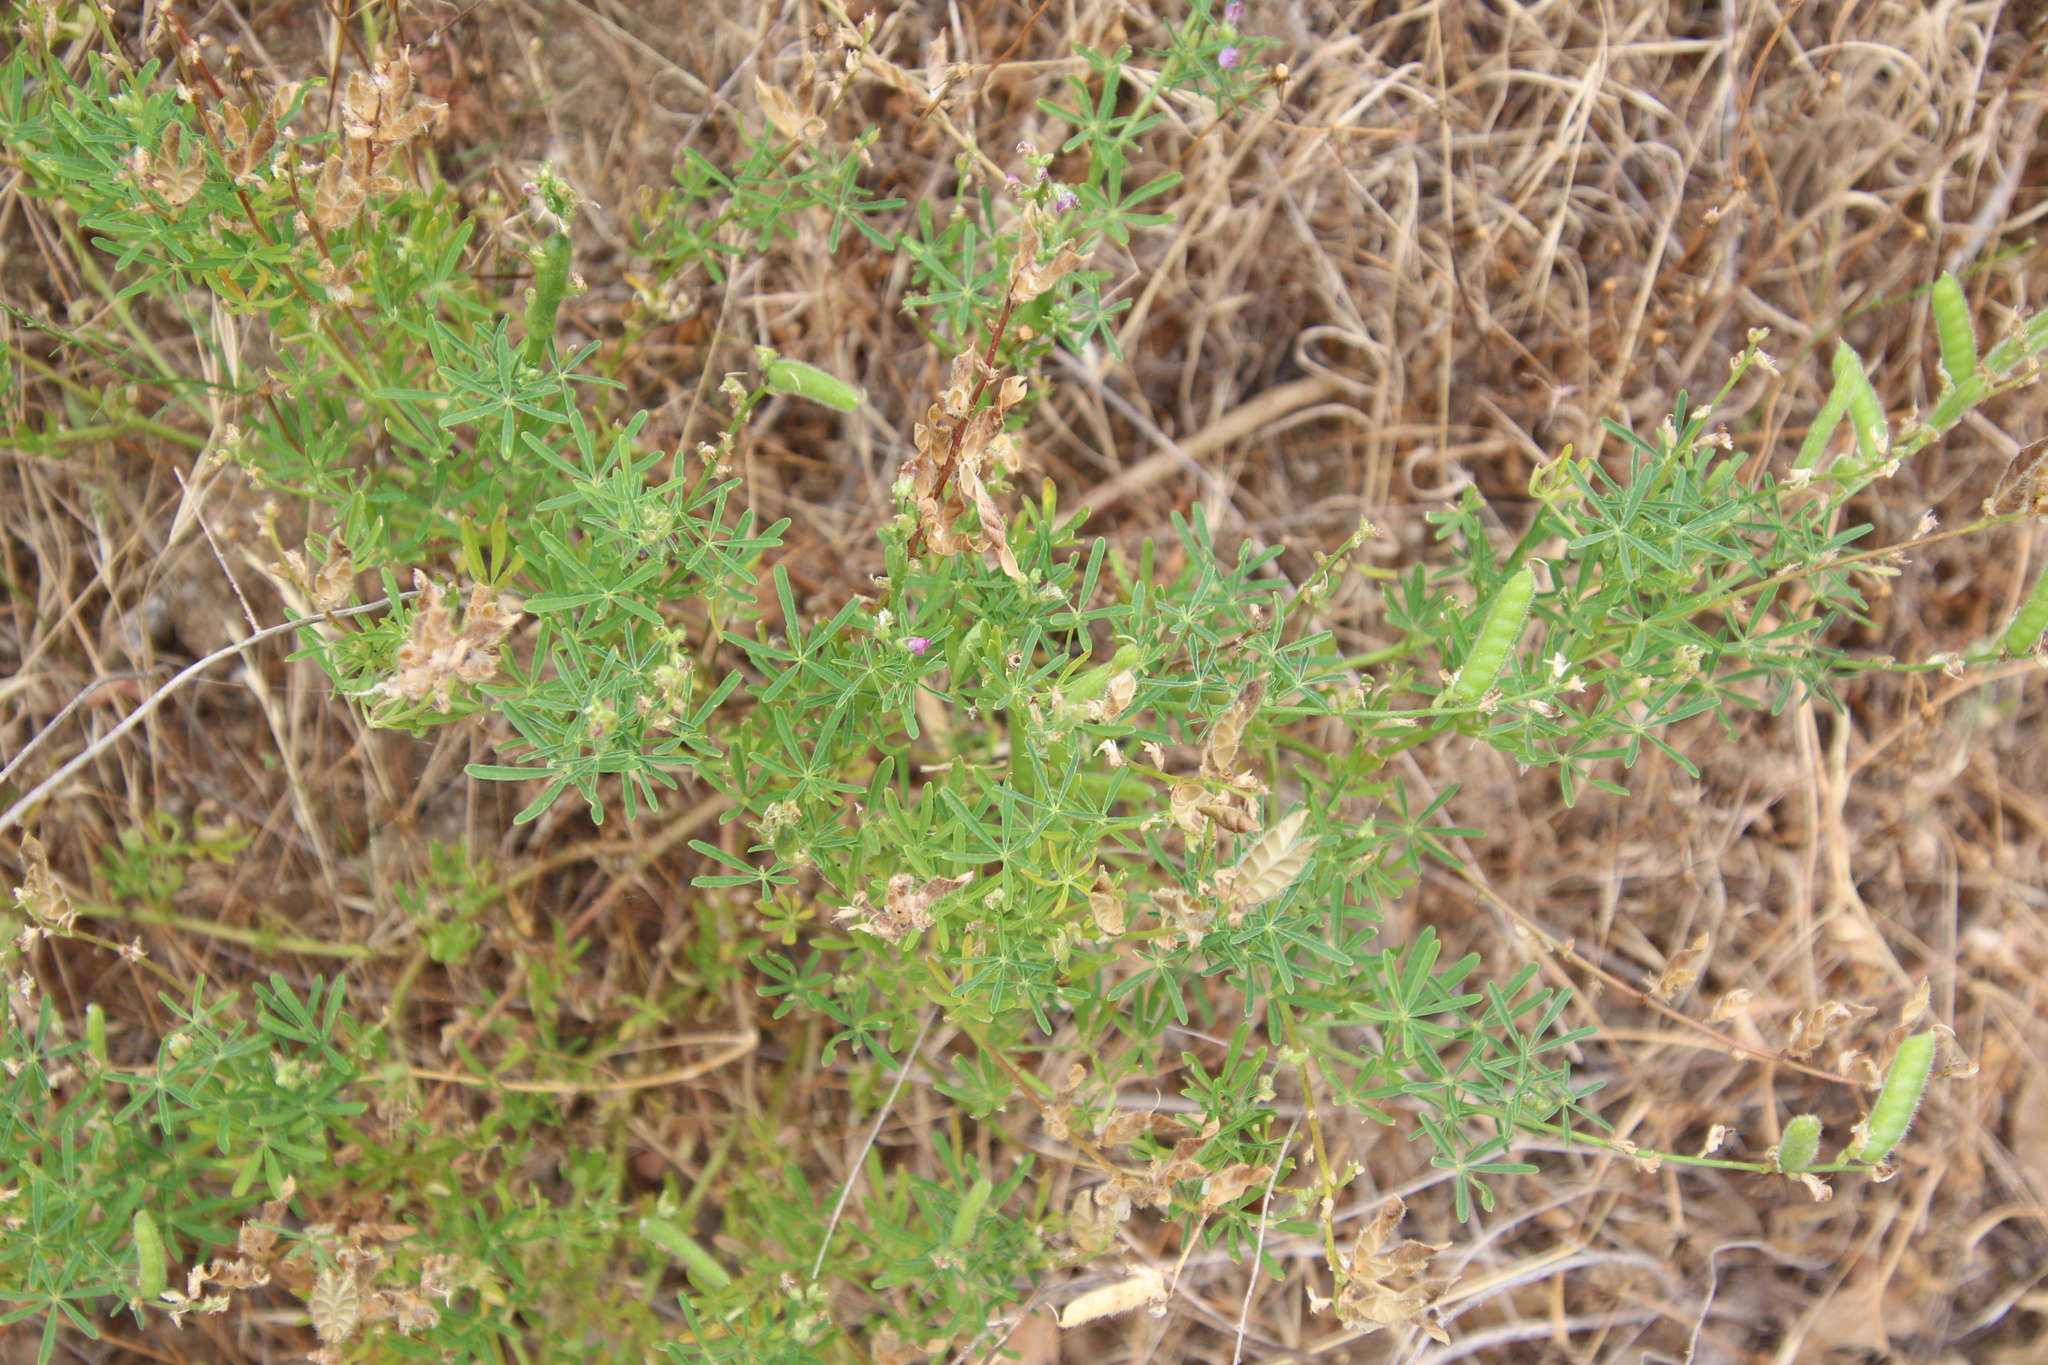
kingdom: Plantae
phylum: Tracheophyta
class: Magnoliopsida
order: Fabales
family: Fabaceae
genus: Lupinus
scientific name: Lupinus truncatus
